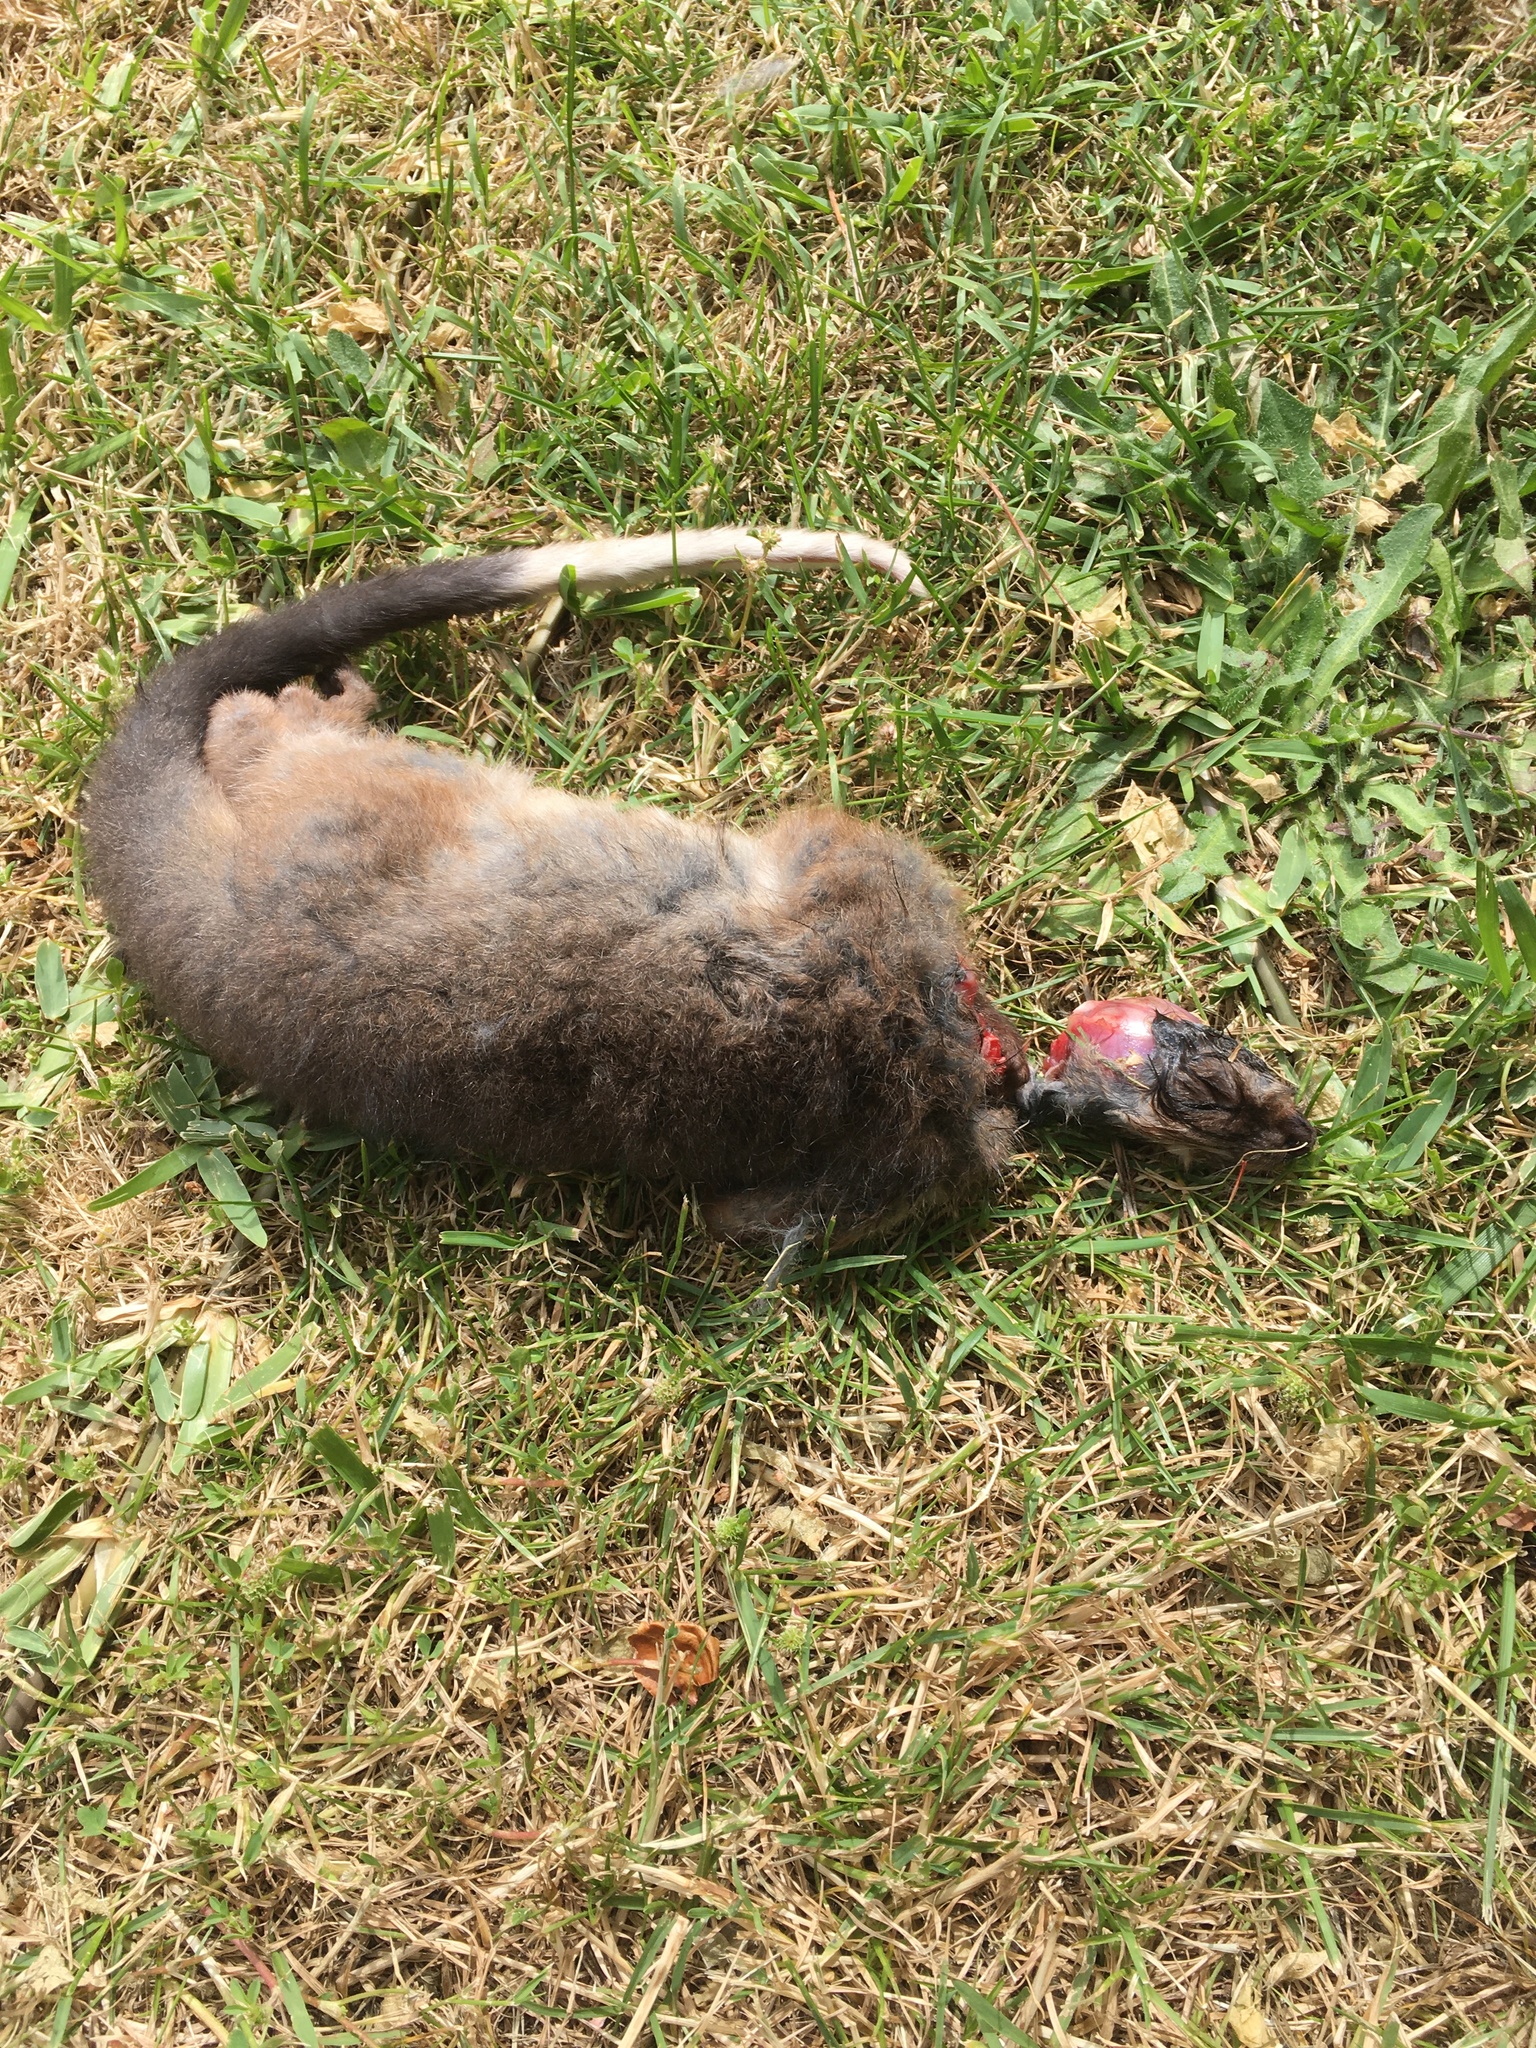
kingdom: Animalia
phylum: Chordata
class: Mammalia
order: Diprotodontia
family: Pseudocheiridae
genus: Pseudocheirus
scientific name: Pseudocheirus peregrinus
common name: Common ringtail possum
